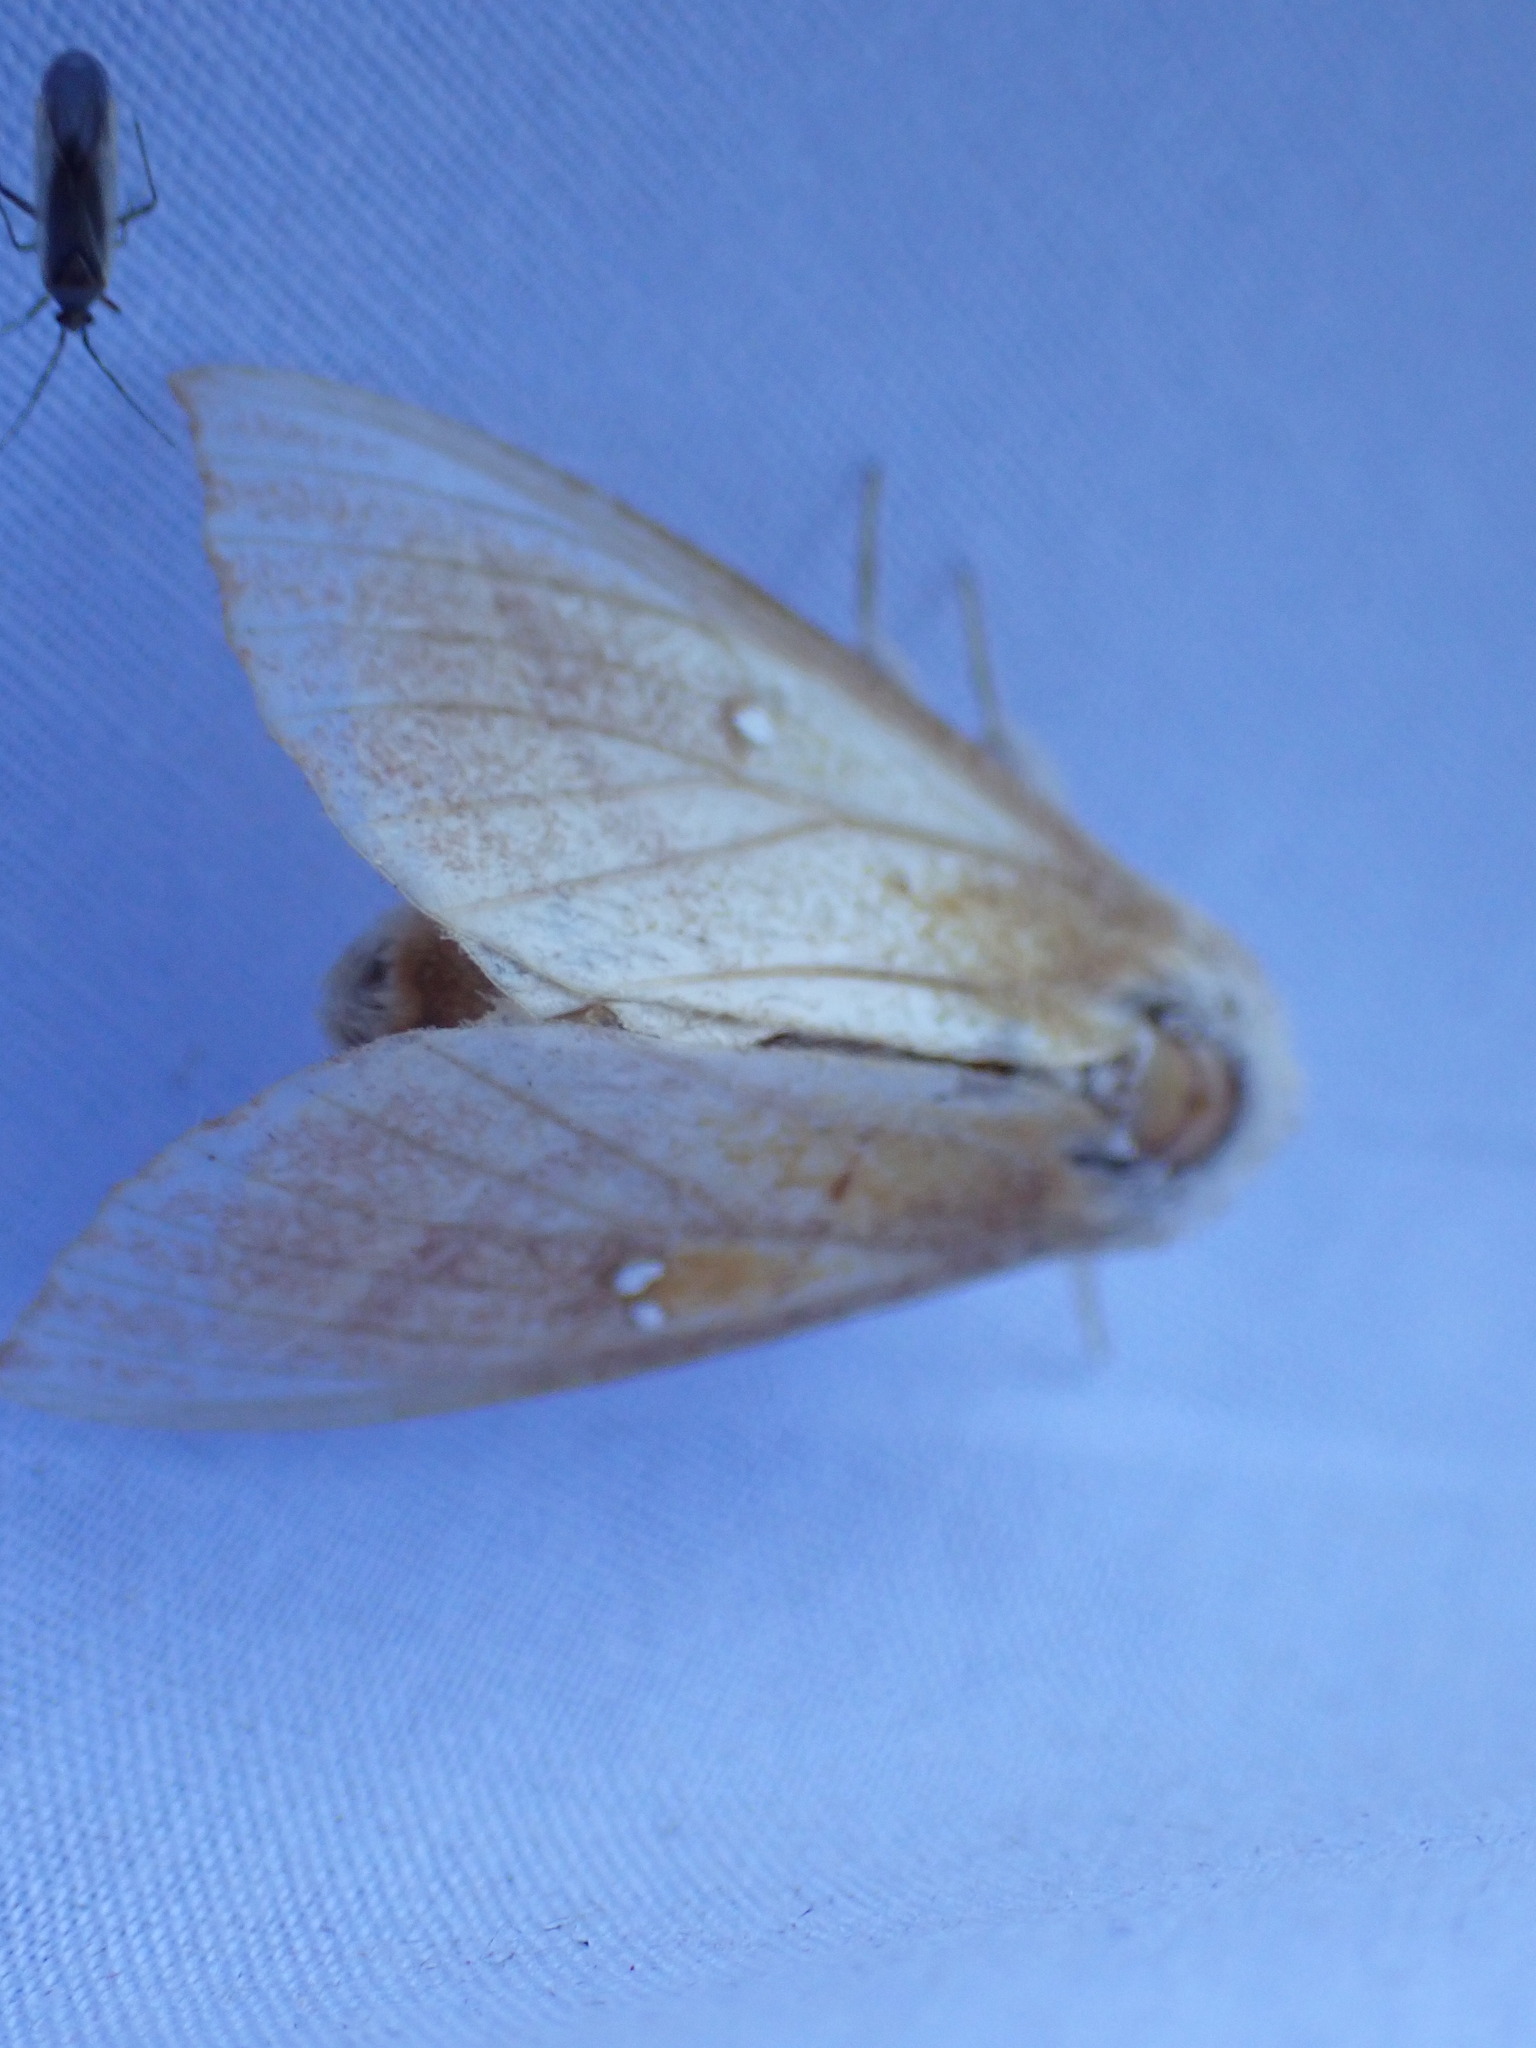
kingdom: Animalia
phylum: Arthropoda
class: Insecta
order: Lepidoptera
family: Notodontidae
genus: Nadata
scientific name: Nadata gibbosa
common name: White-dotted prominent
